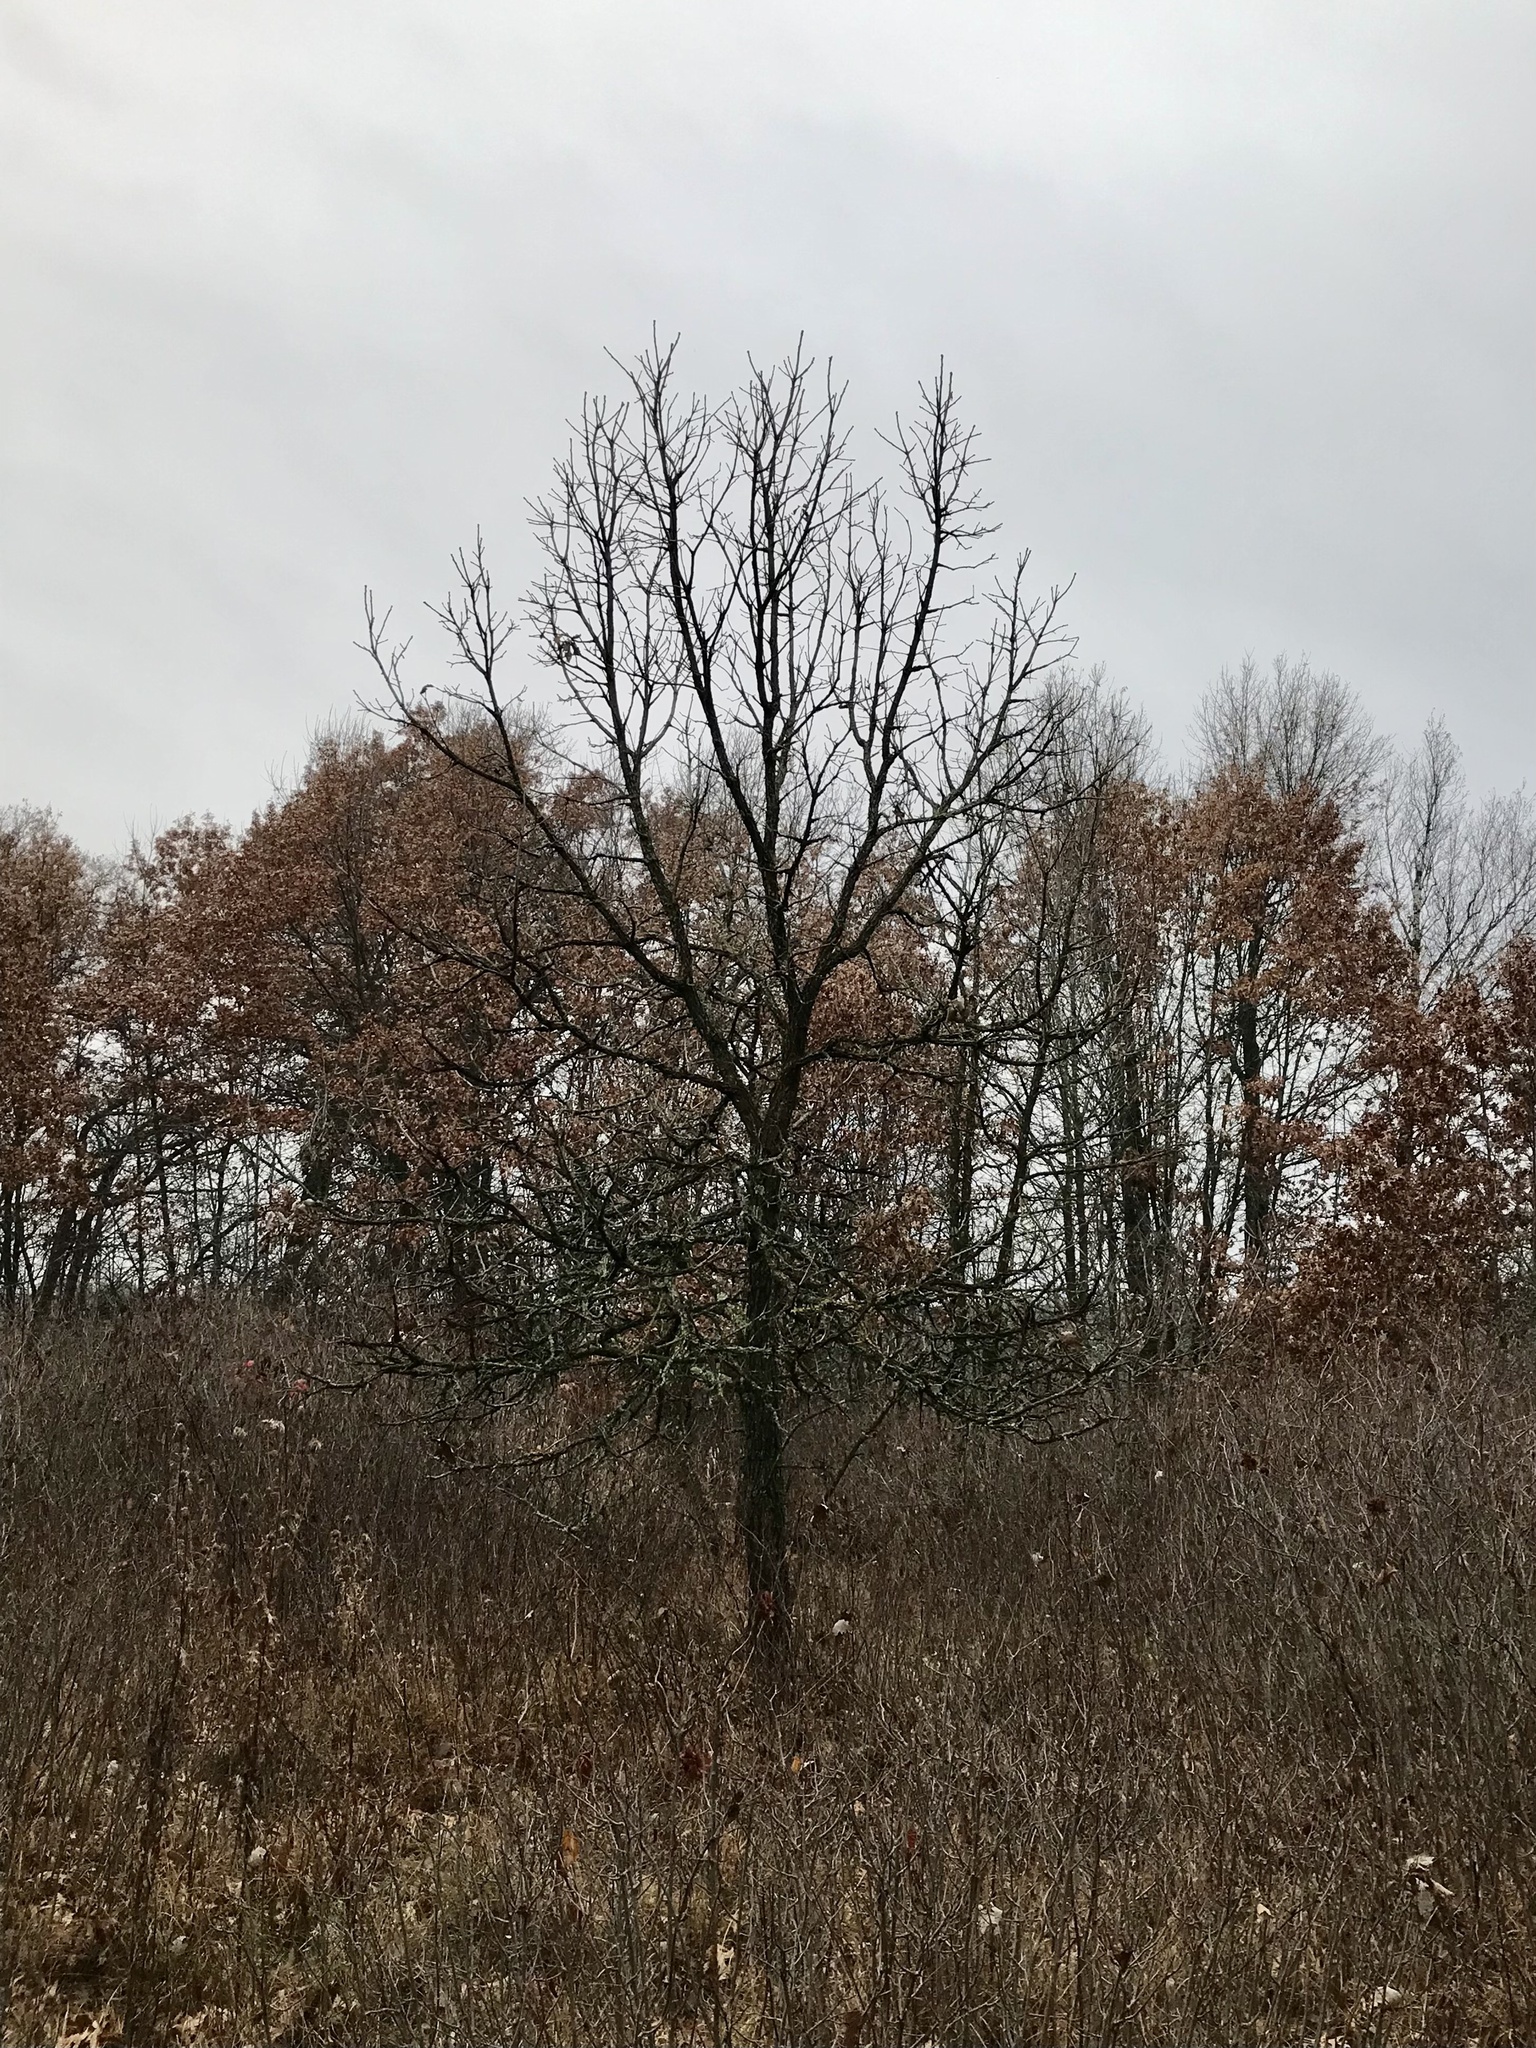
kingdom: Plantae
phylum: Tracheophyta
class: Magnoliopsida
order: Fagales
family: Fagaceae
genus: Quercus
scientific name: Quercus macrocarpa
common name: Bur oak
